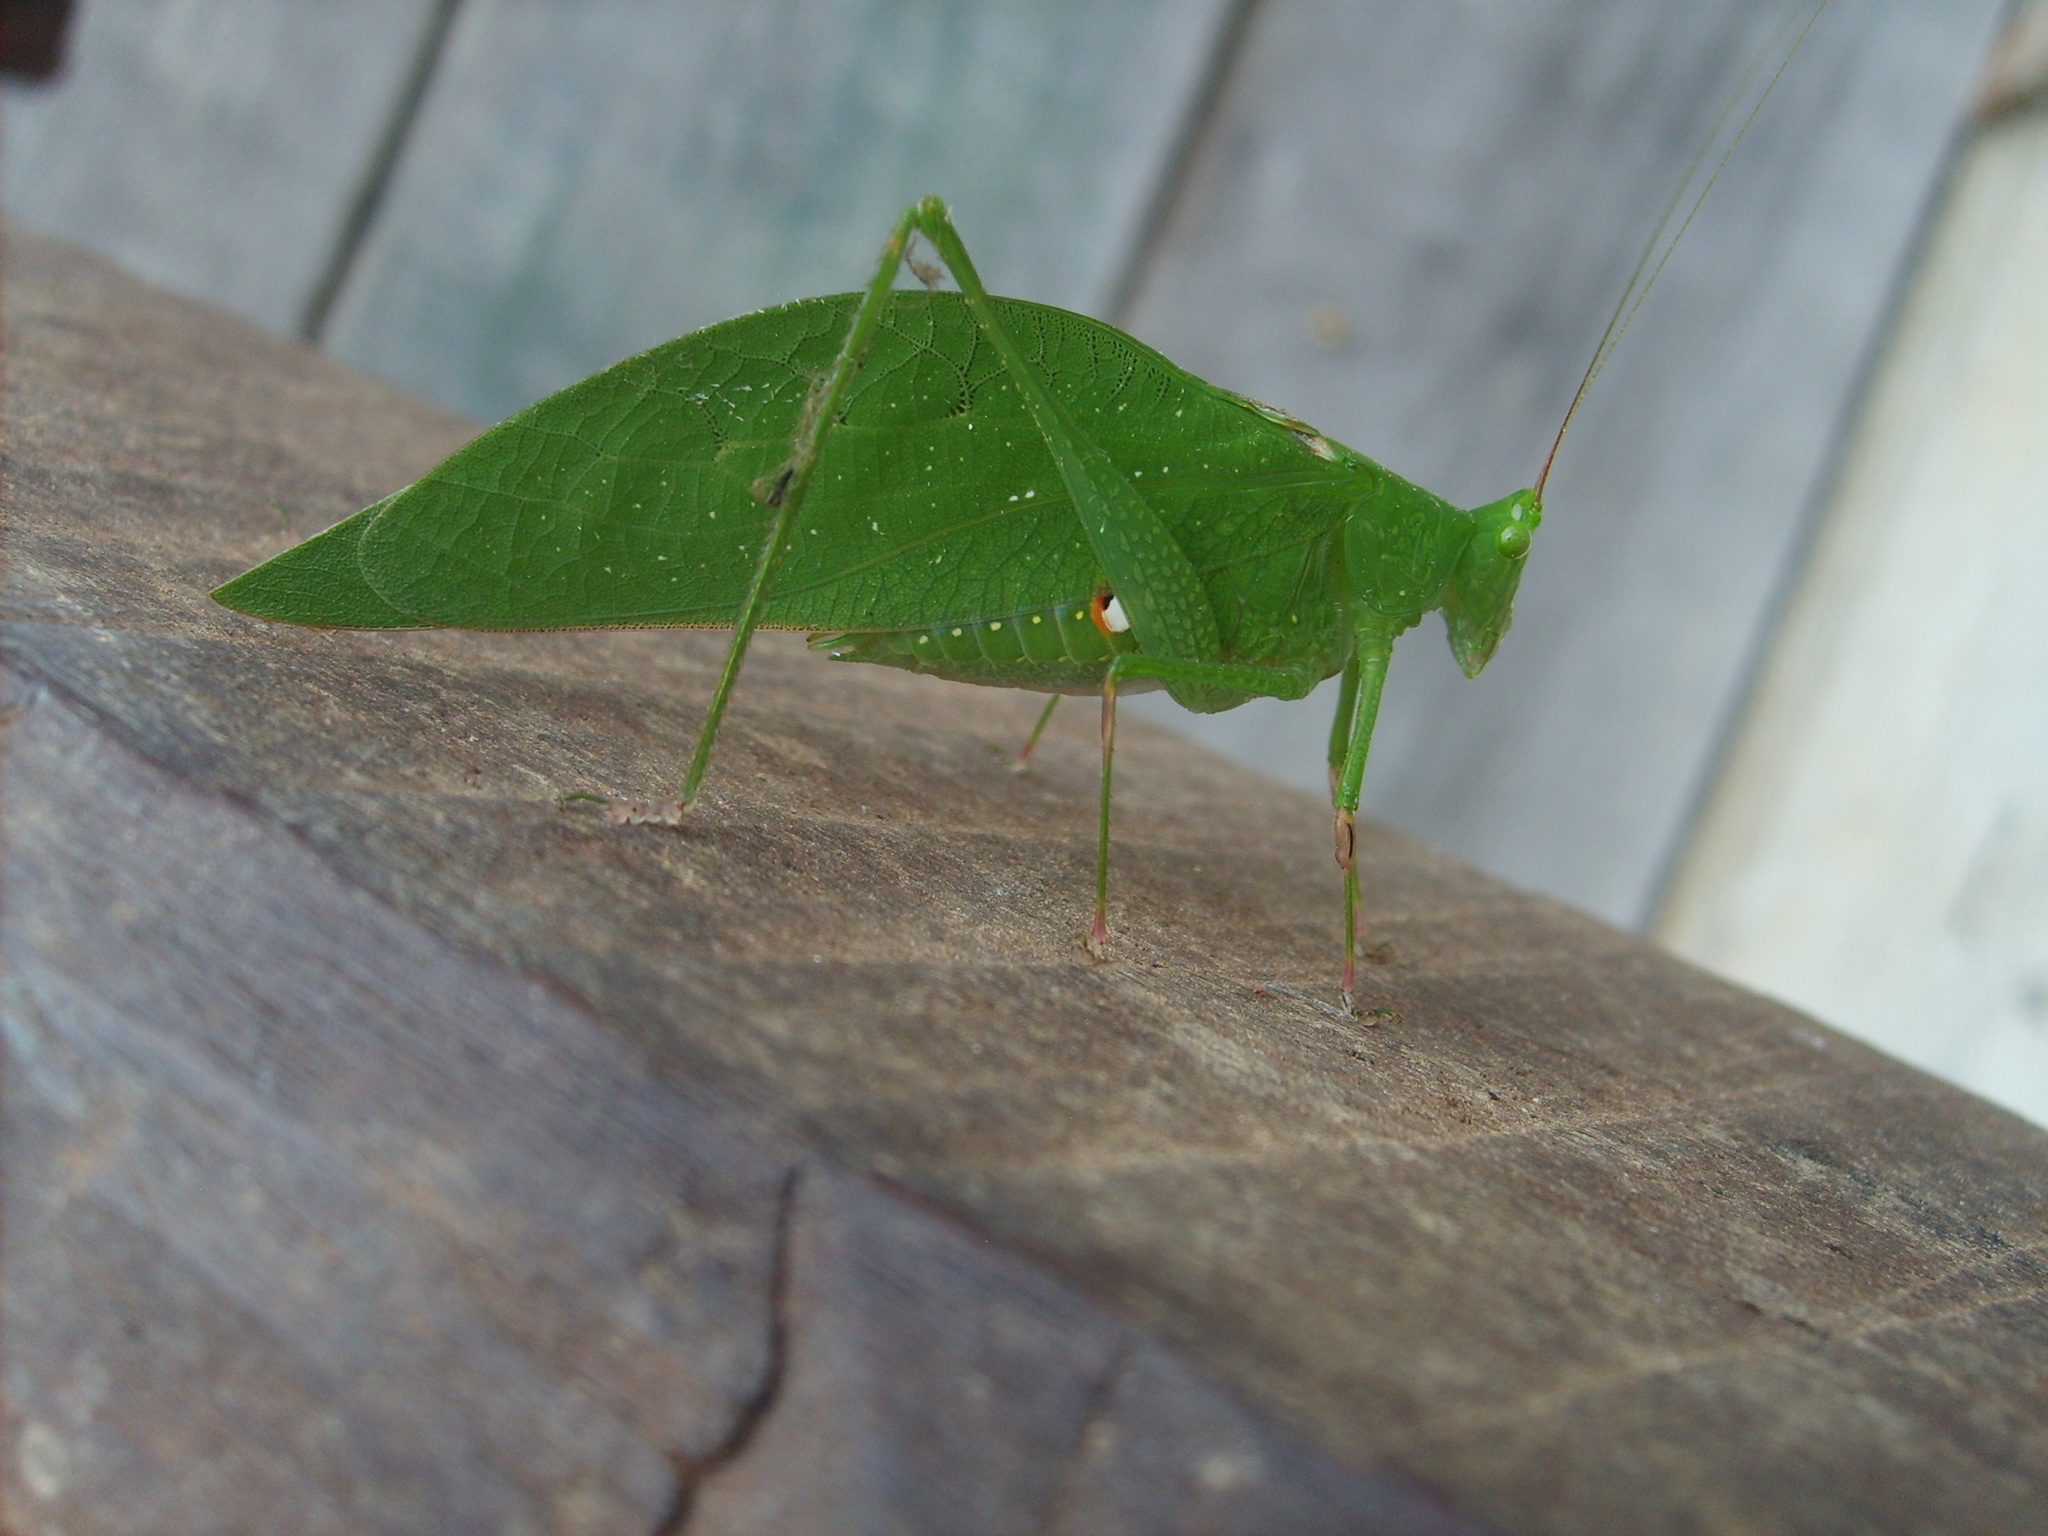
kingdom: Animalia
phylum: Arthropoda
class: Insecta
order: Orthoptera
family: Tettigoniidae
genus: Petaloptera
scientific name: Petaloptera zendala
